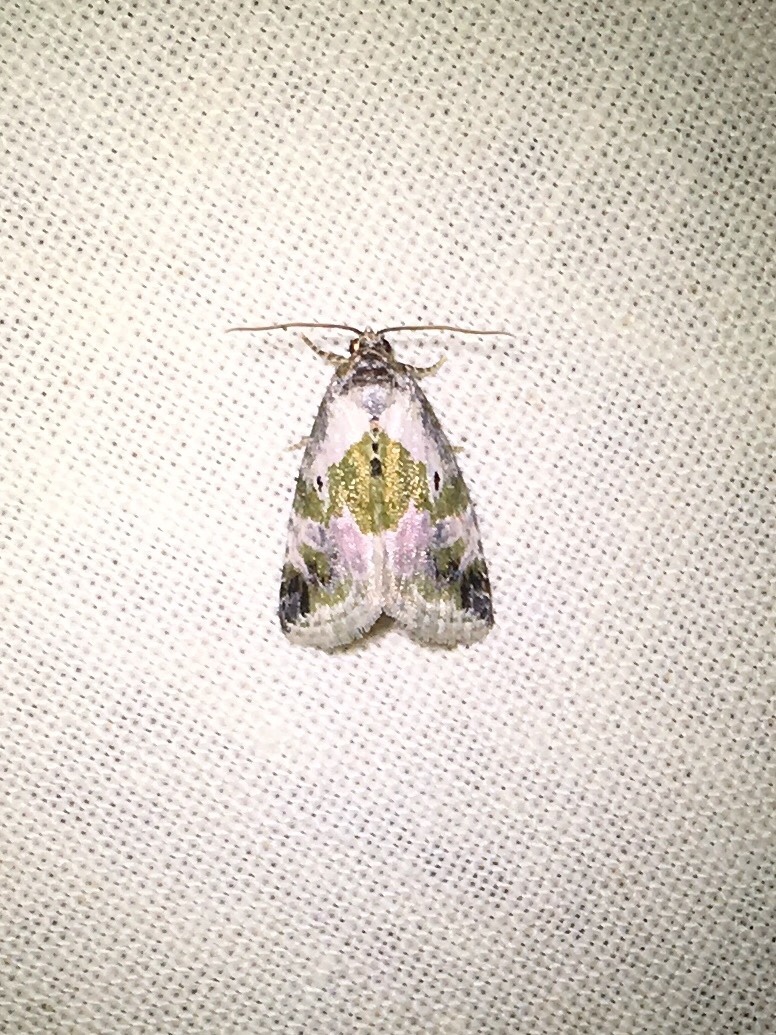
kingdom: Animalia
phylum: Arthropoda
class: Insecta
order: Lepidoptera
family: Noctuidae
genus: Maliattha
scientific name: Maliattha synochitis
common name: Black-dotted glyph
